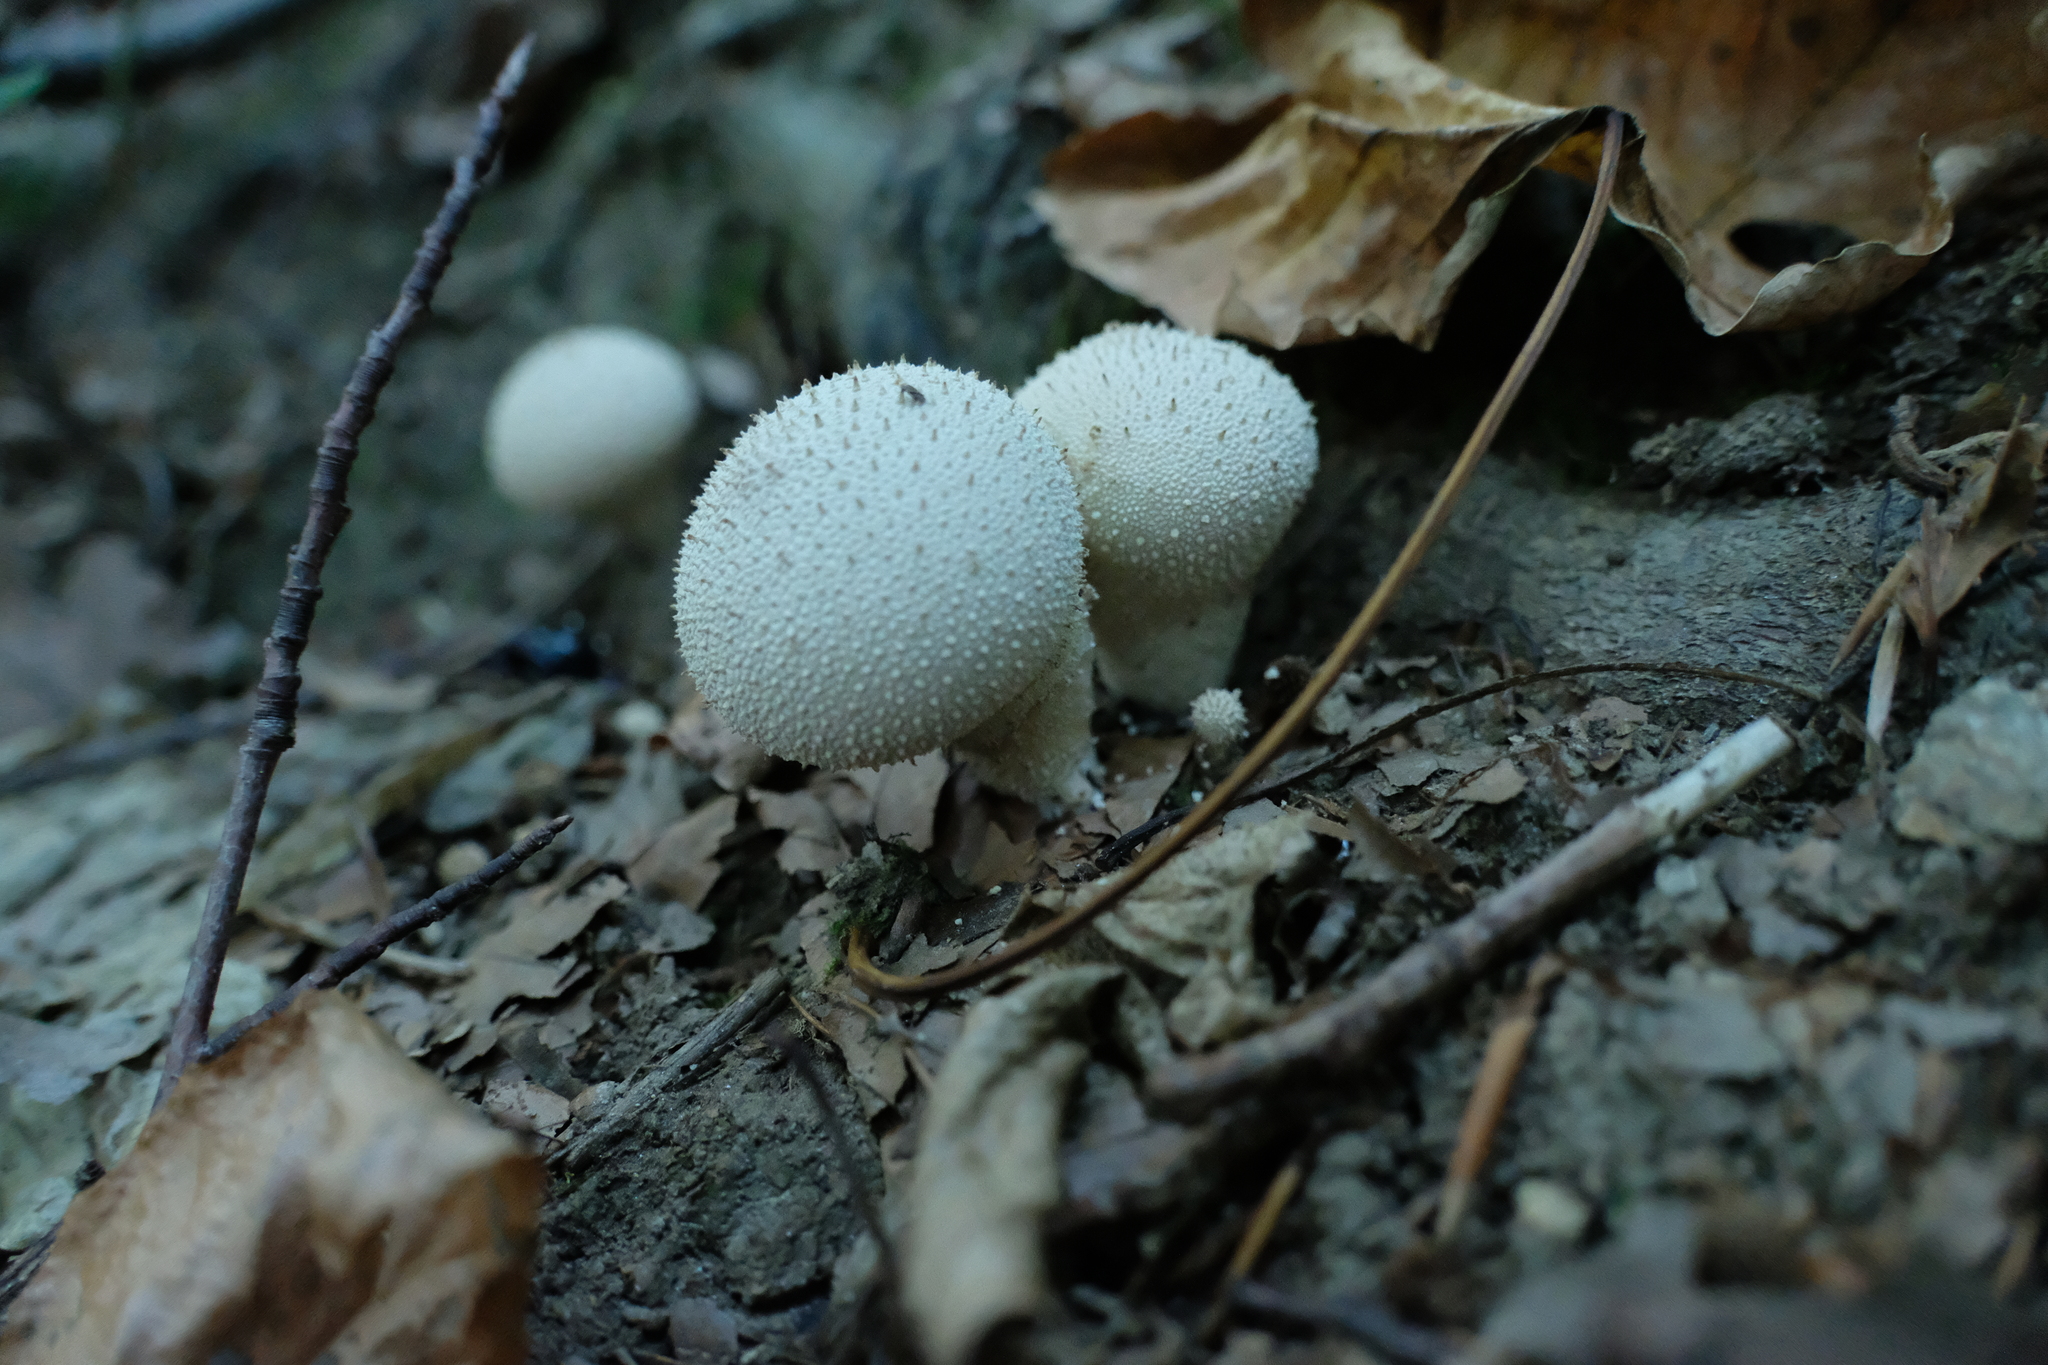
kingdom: Fungi
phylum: Basidiomycota
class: Agaricomycetes
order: Agaricales
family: Lycoperdaceae
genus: Lycoperdon
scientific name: Lycoperdon perlatum
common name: Common puffball
